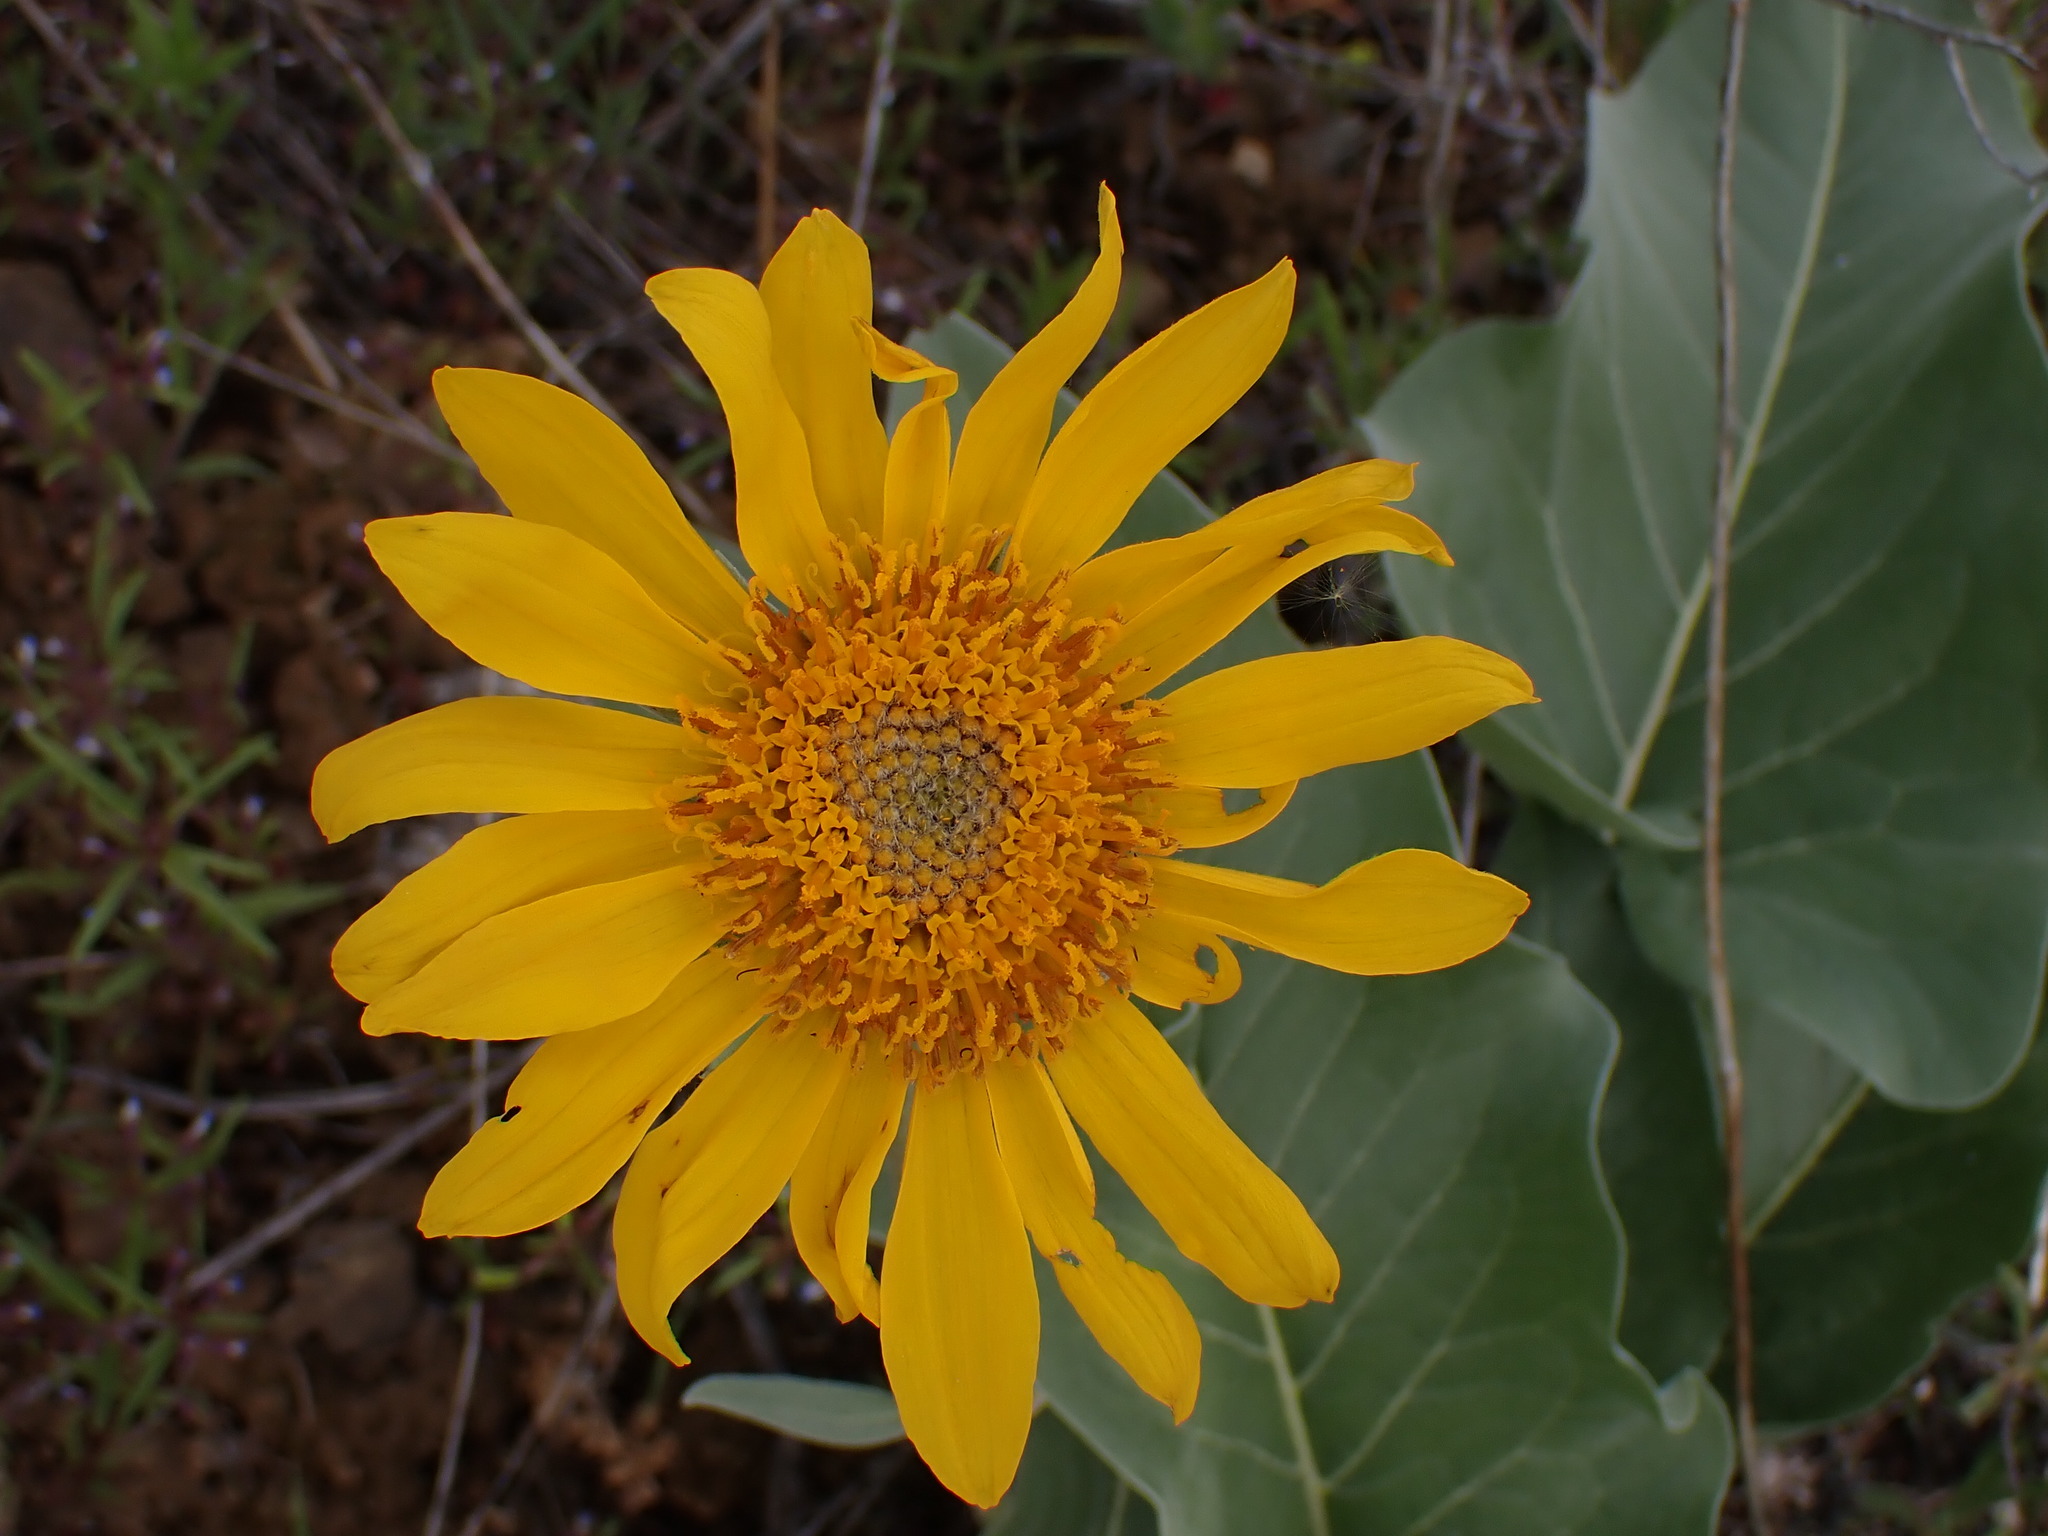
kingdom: Plantae
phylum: Tracheophyta
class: Magnoliopsida
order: Asterales
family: Asteraceae
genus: Wyethia
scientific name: Wyethia sagittata
